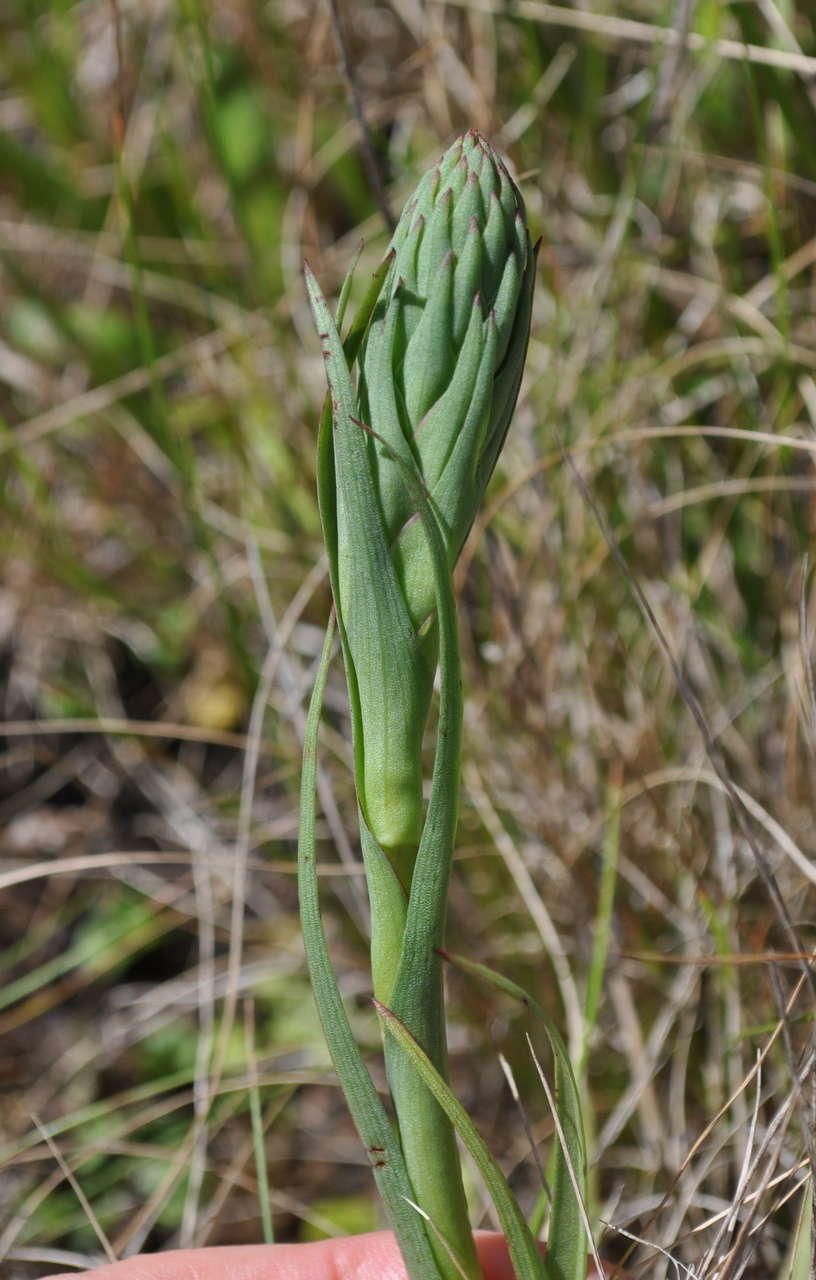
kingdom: Plantae
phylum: Tracheophyta
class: Liliopsida
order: Asparagales
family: Orchidaceae
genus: Disa
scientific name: Disa bracteata
